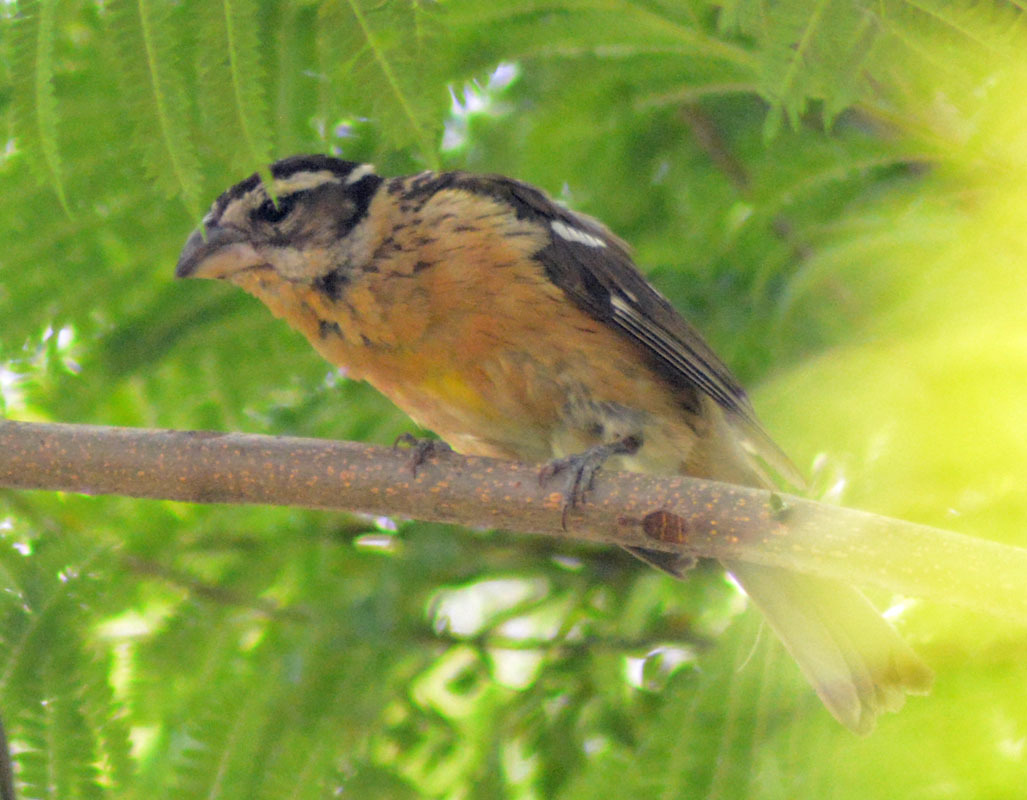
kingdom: Animalia
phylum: Chordata
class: Aves
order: Passeriformes
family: Cardinalidae
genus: Pheucticus
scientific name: Pheucticus melanocephalus
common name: Black-headed grosbeak
